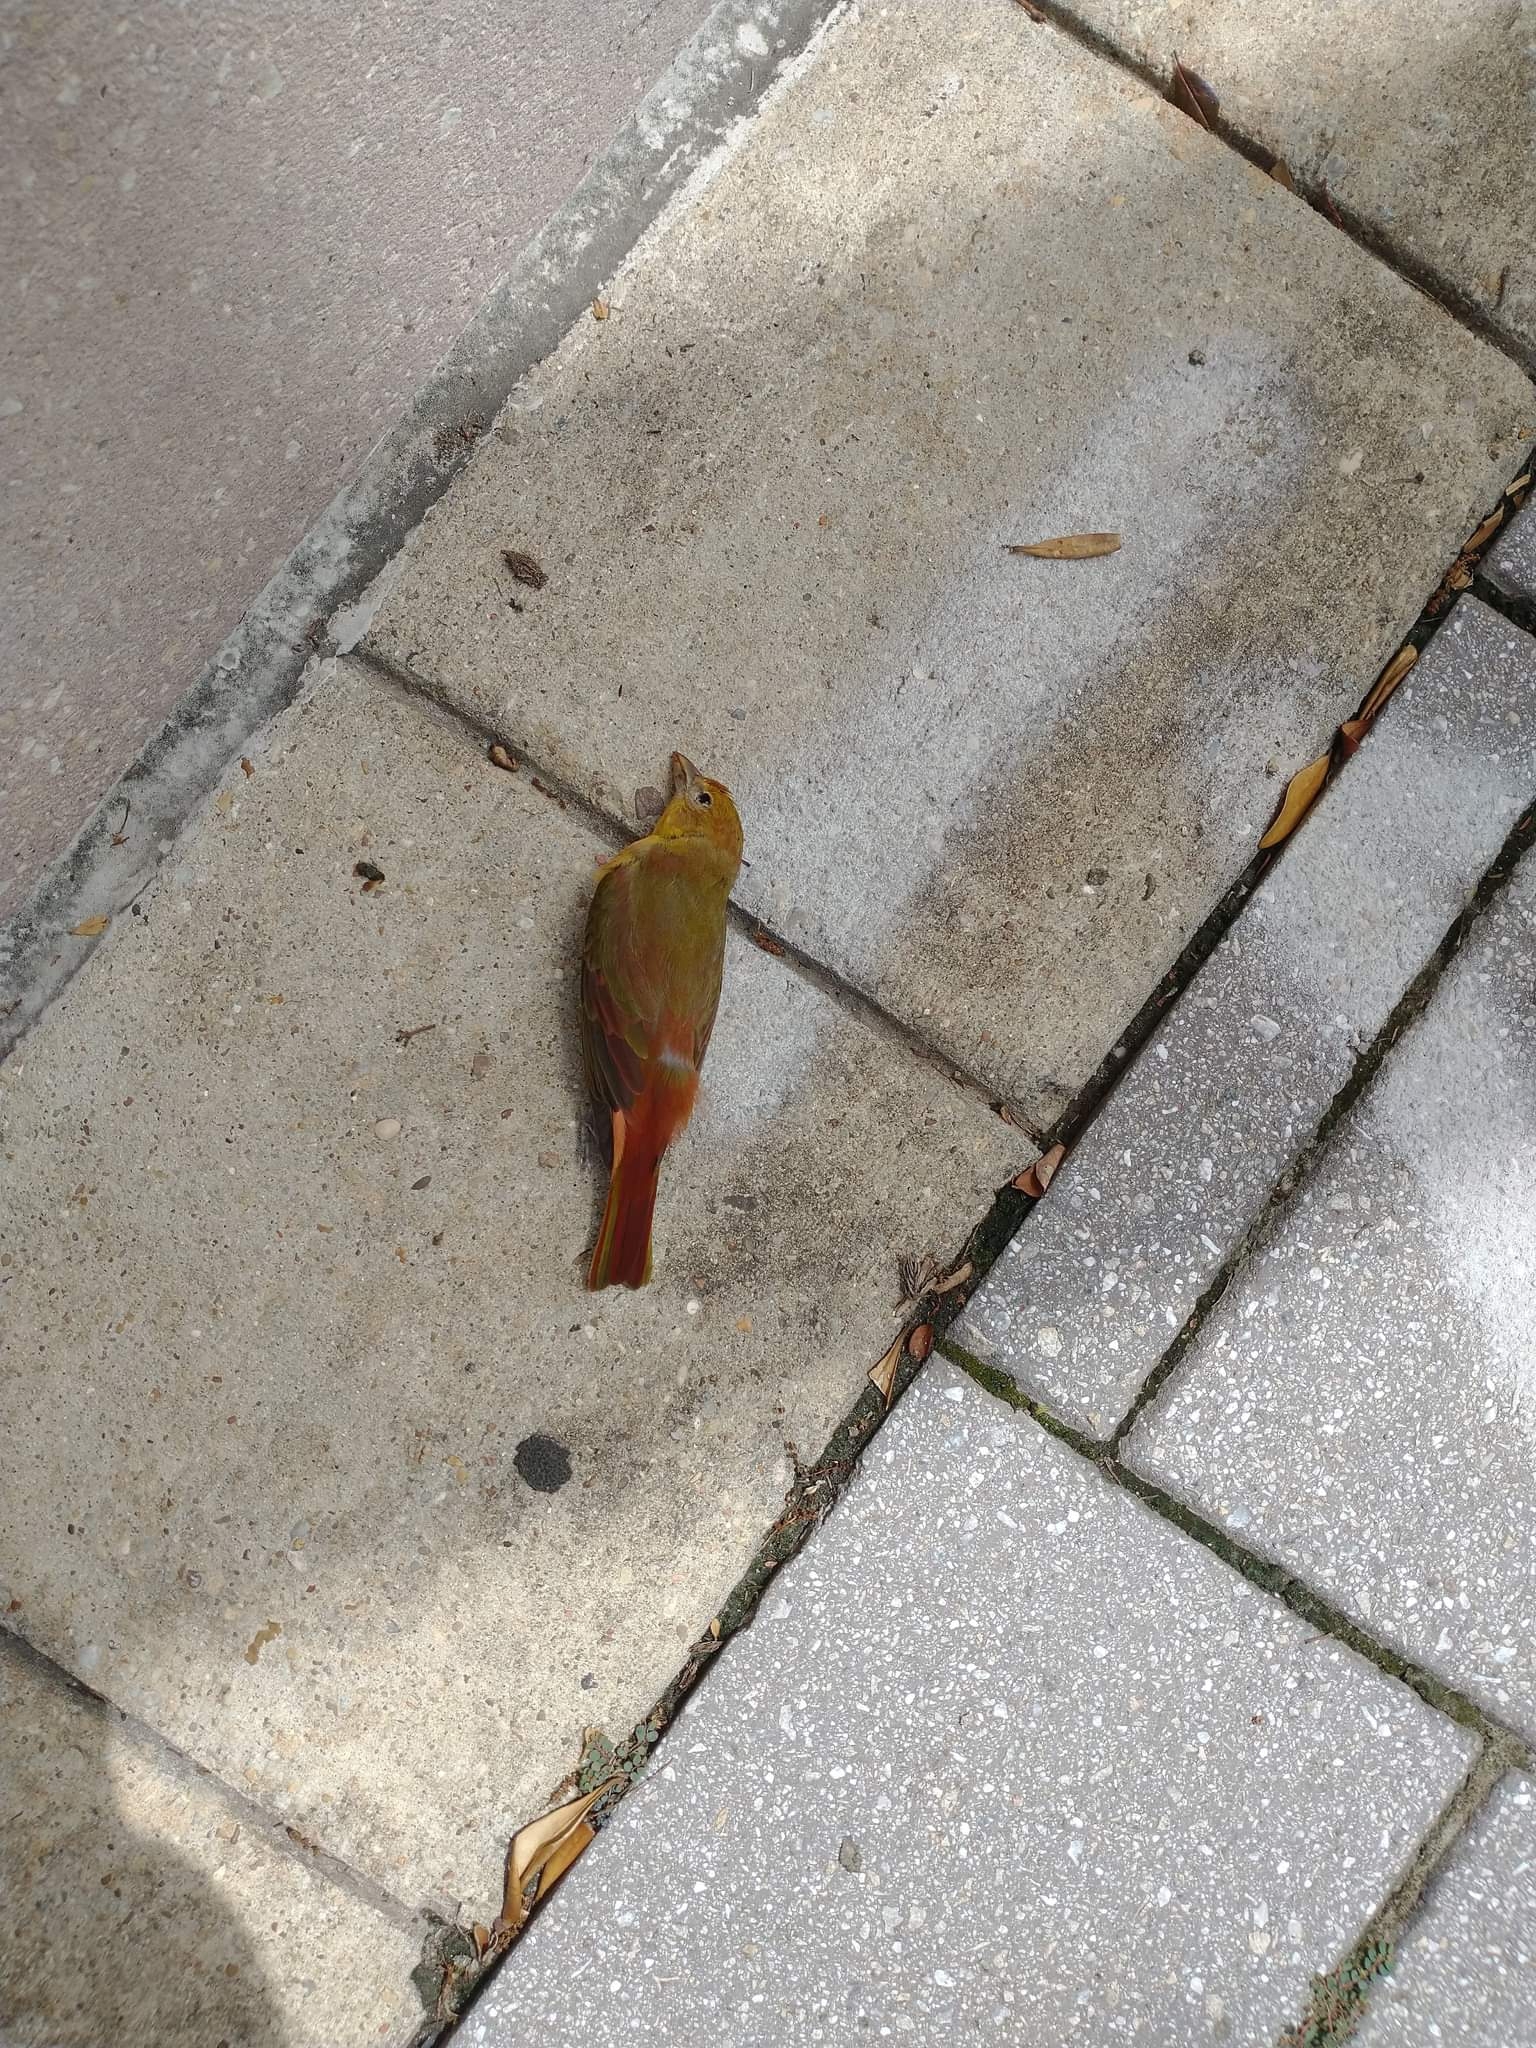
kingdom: Animalia
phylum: Chordata
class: Aves
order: Passeriformes
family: Cardinalidae
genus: Piranga
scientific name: Piranga rubra
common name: Summer tanager
